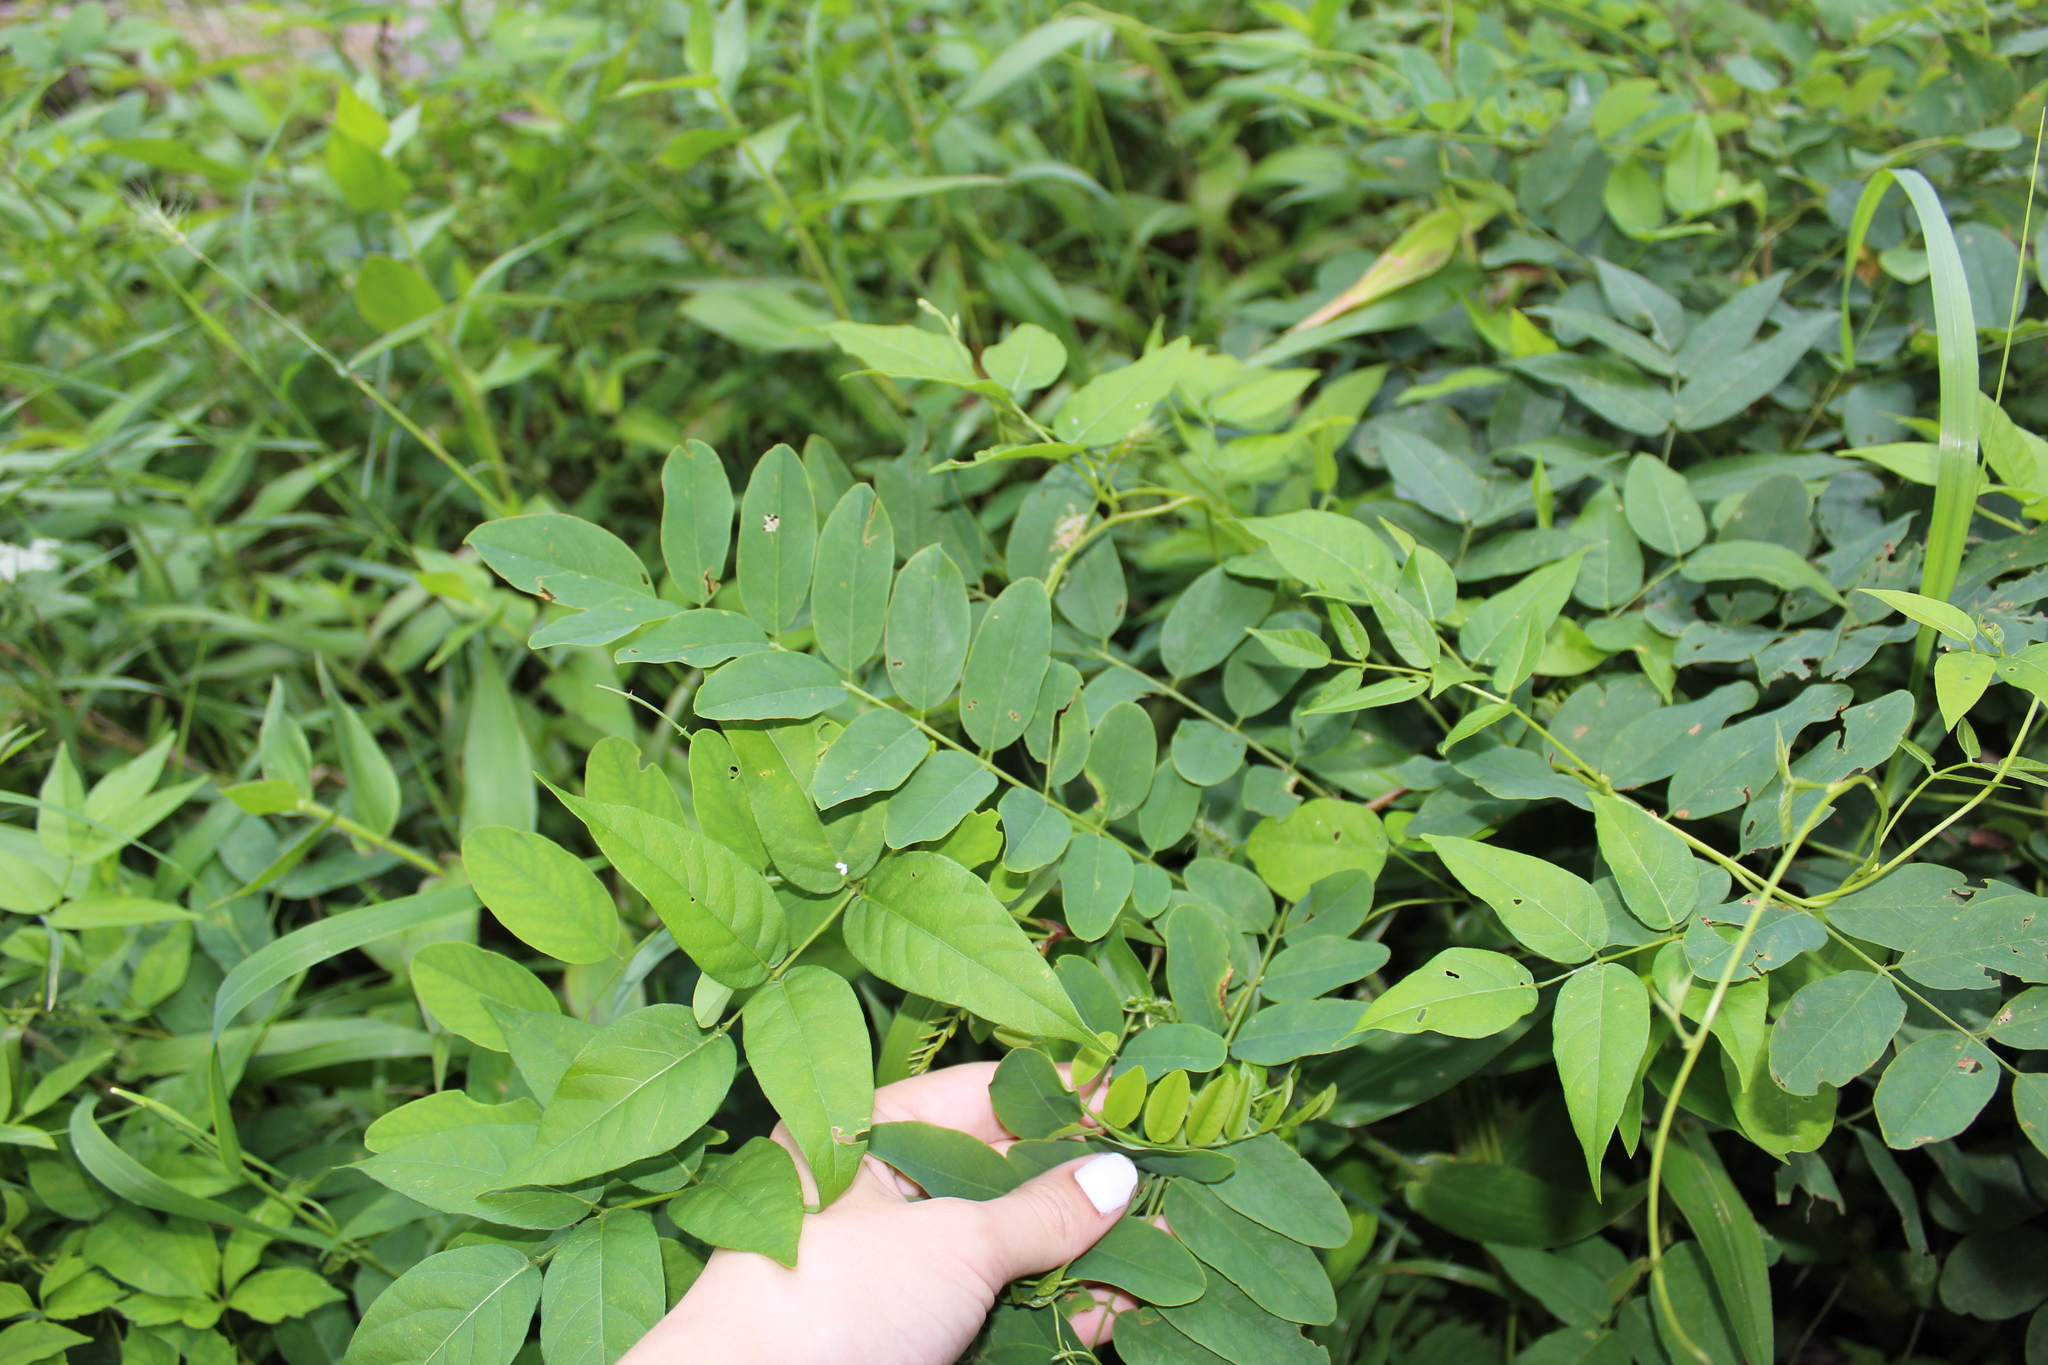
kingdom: Plantae
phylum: Tracheophyta
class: Magnoliopsida
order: Fabales
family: Fabaceae
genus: Robinia
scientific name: Robinia pseudoacacia
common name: Black locust
